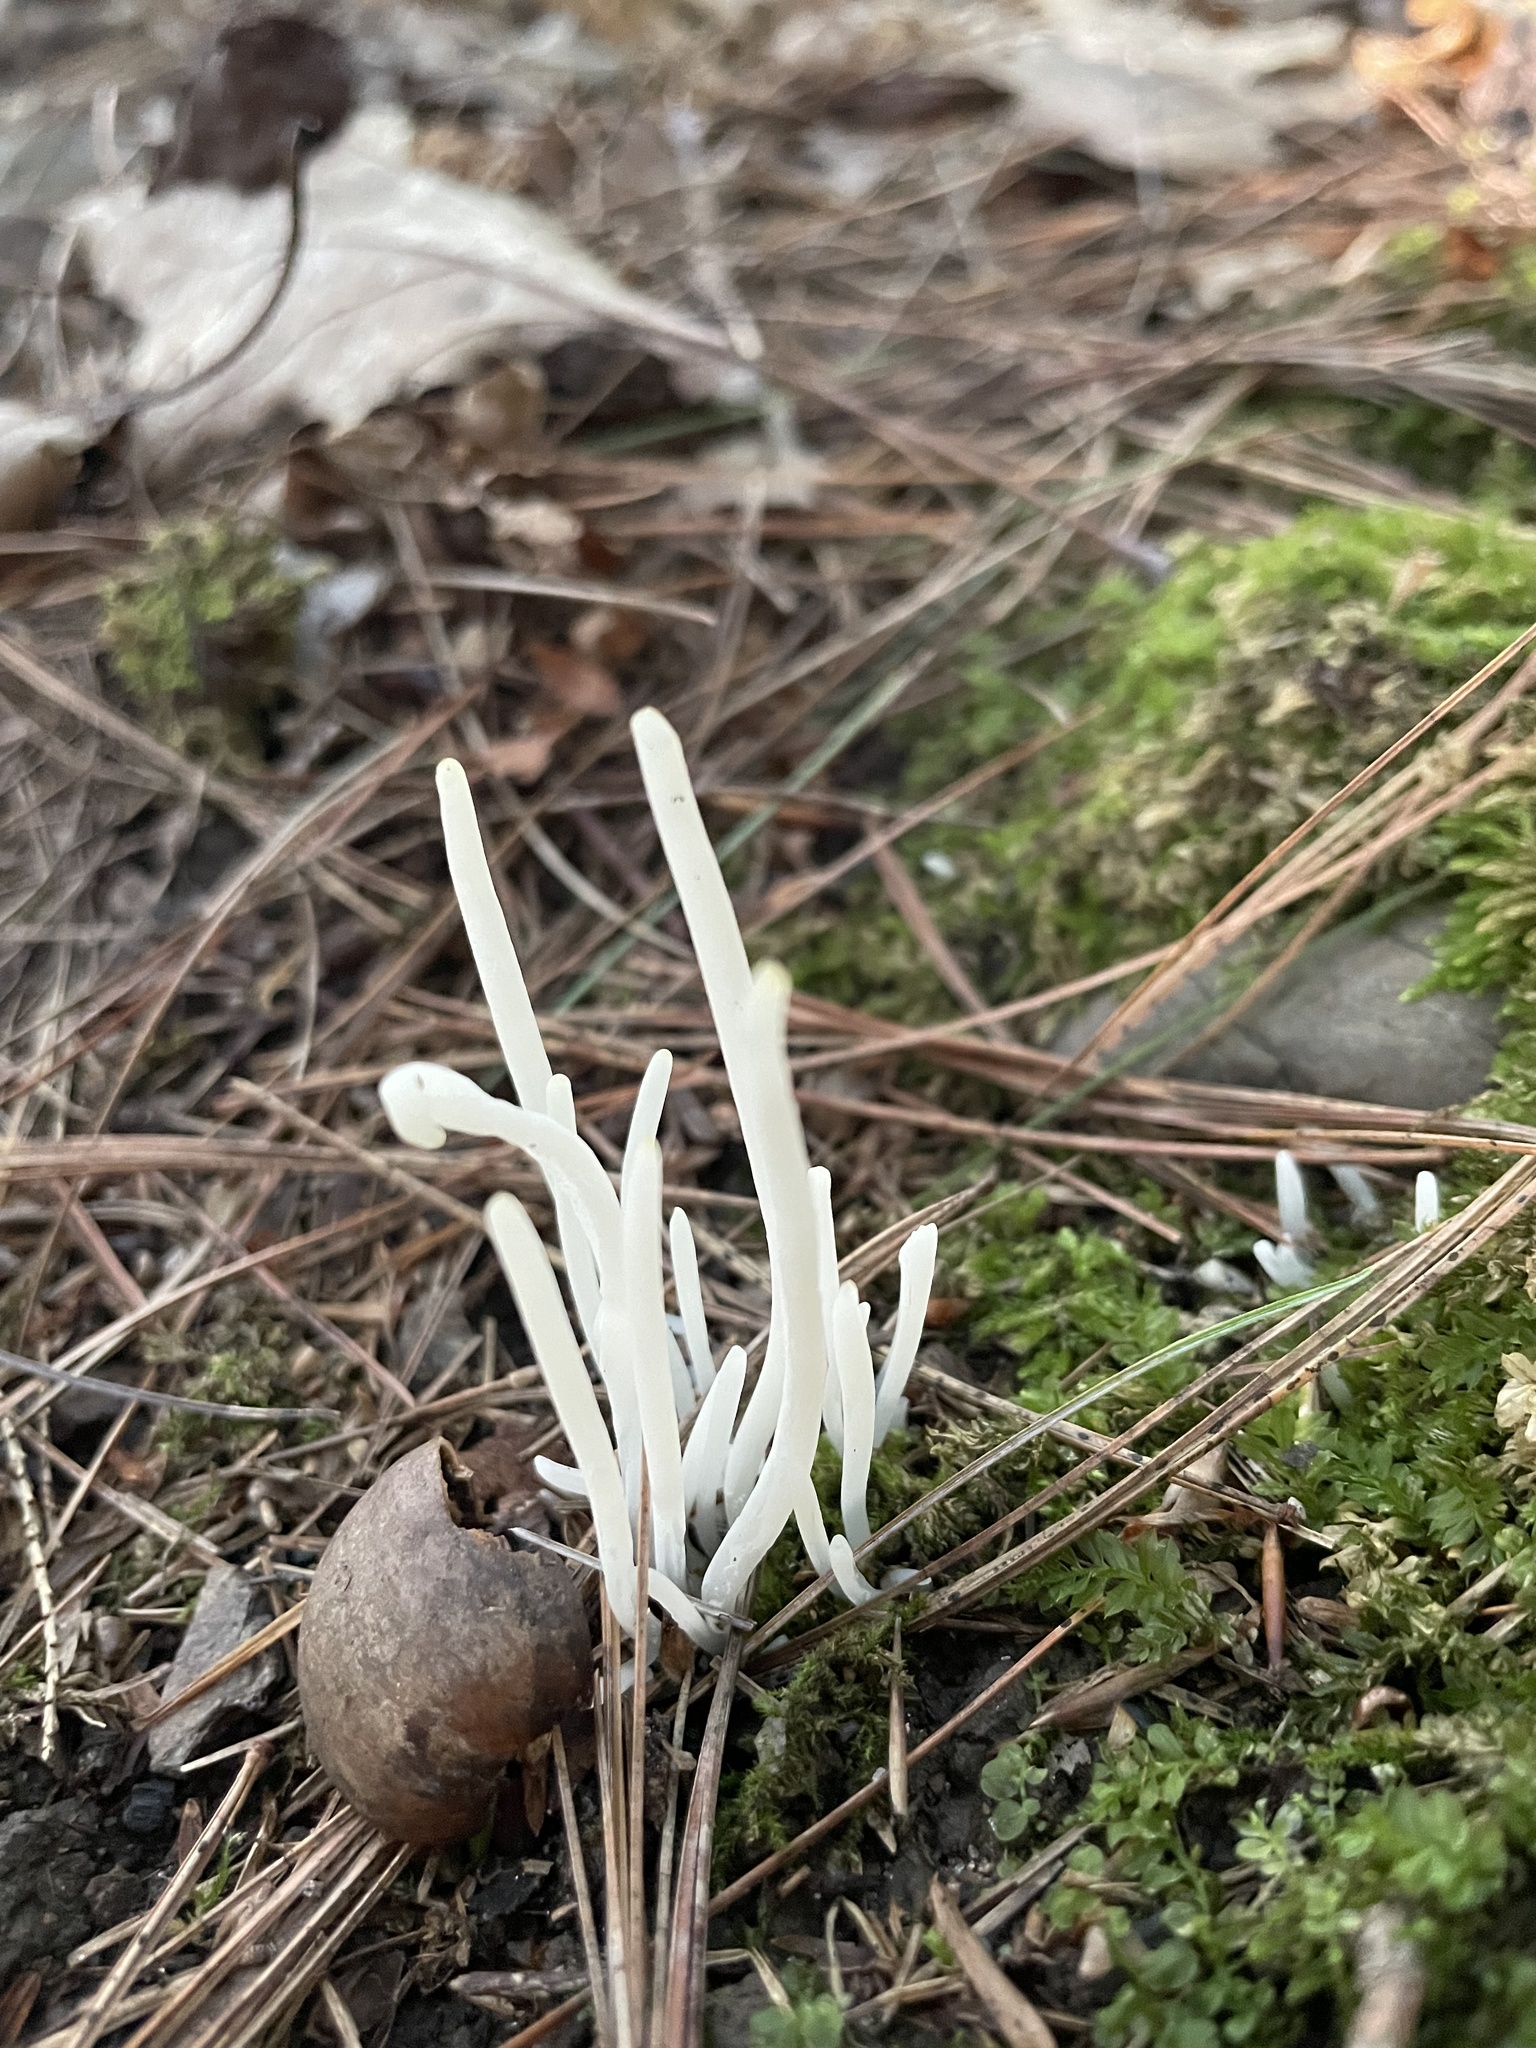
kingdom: Fungi
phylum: Basidiomycota
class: Agaricomycetes
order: Agaricales
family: Clavariaceae
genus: Clavaria
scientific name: Clavaria fragilis
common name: White spindles
